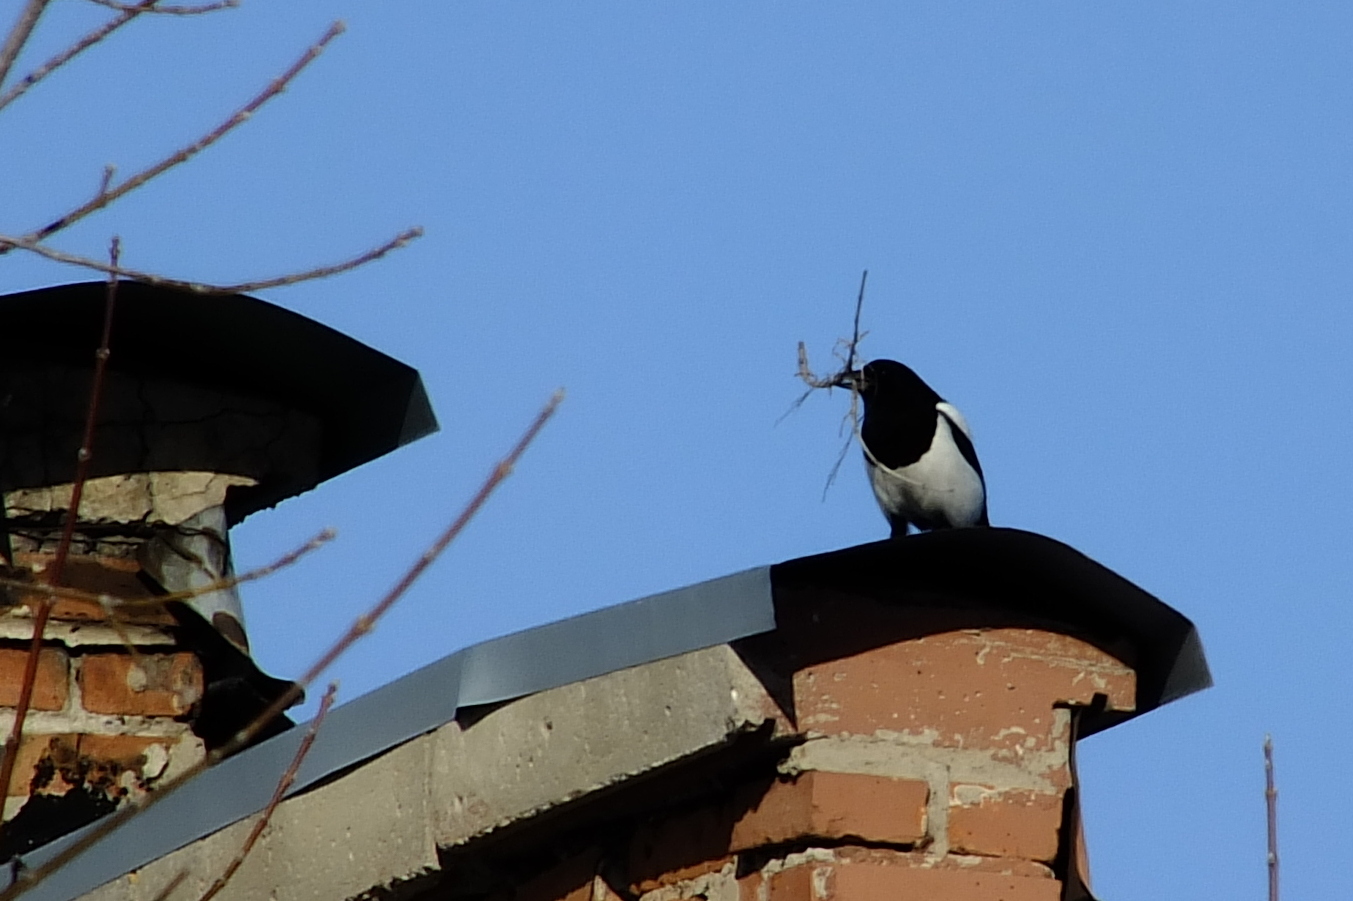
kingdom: Animalia
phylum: Chordata
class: Aves
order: Passeriformes
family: Corvidae
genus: Pica
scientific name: Pica pica
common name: Eurasian magpie
